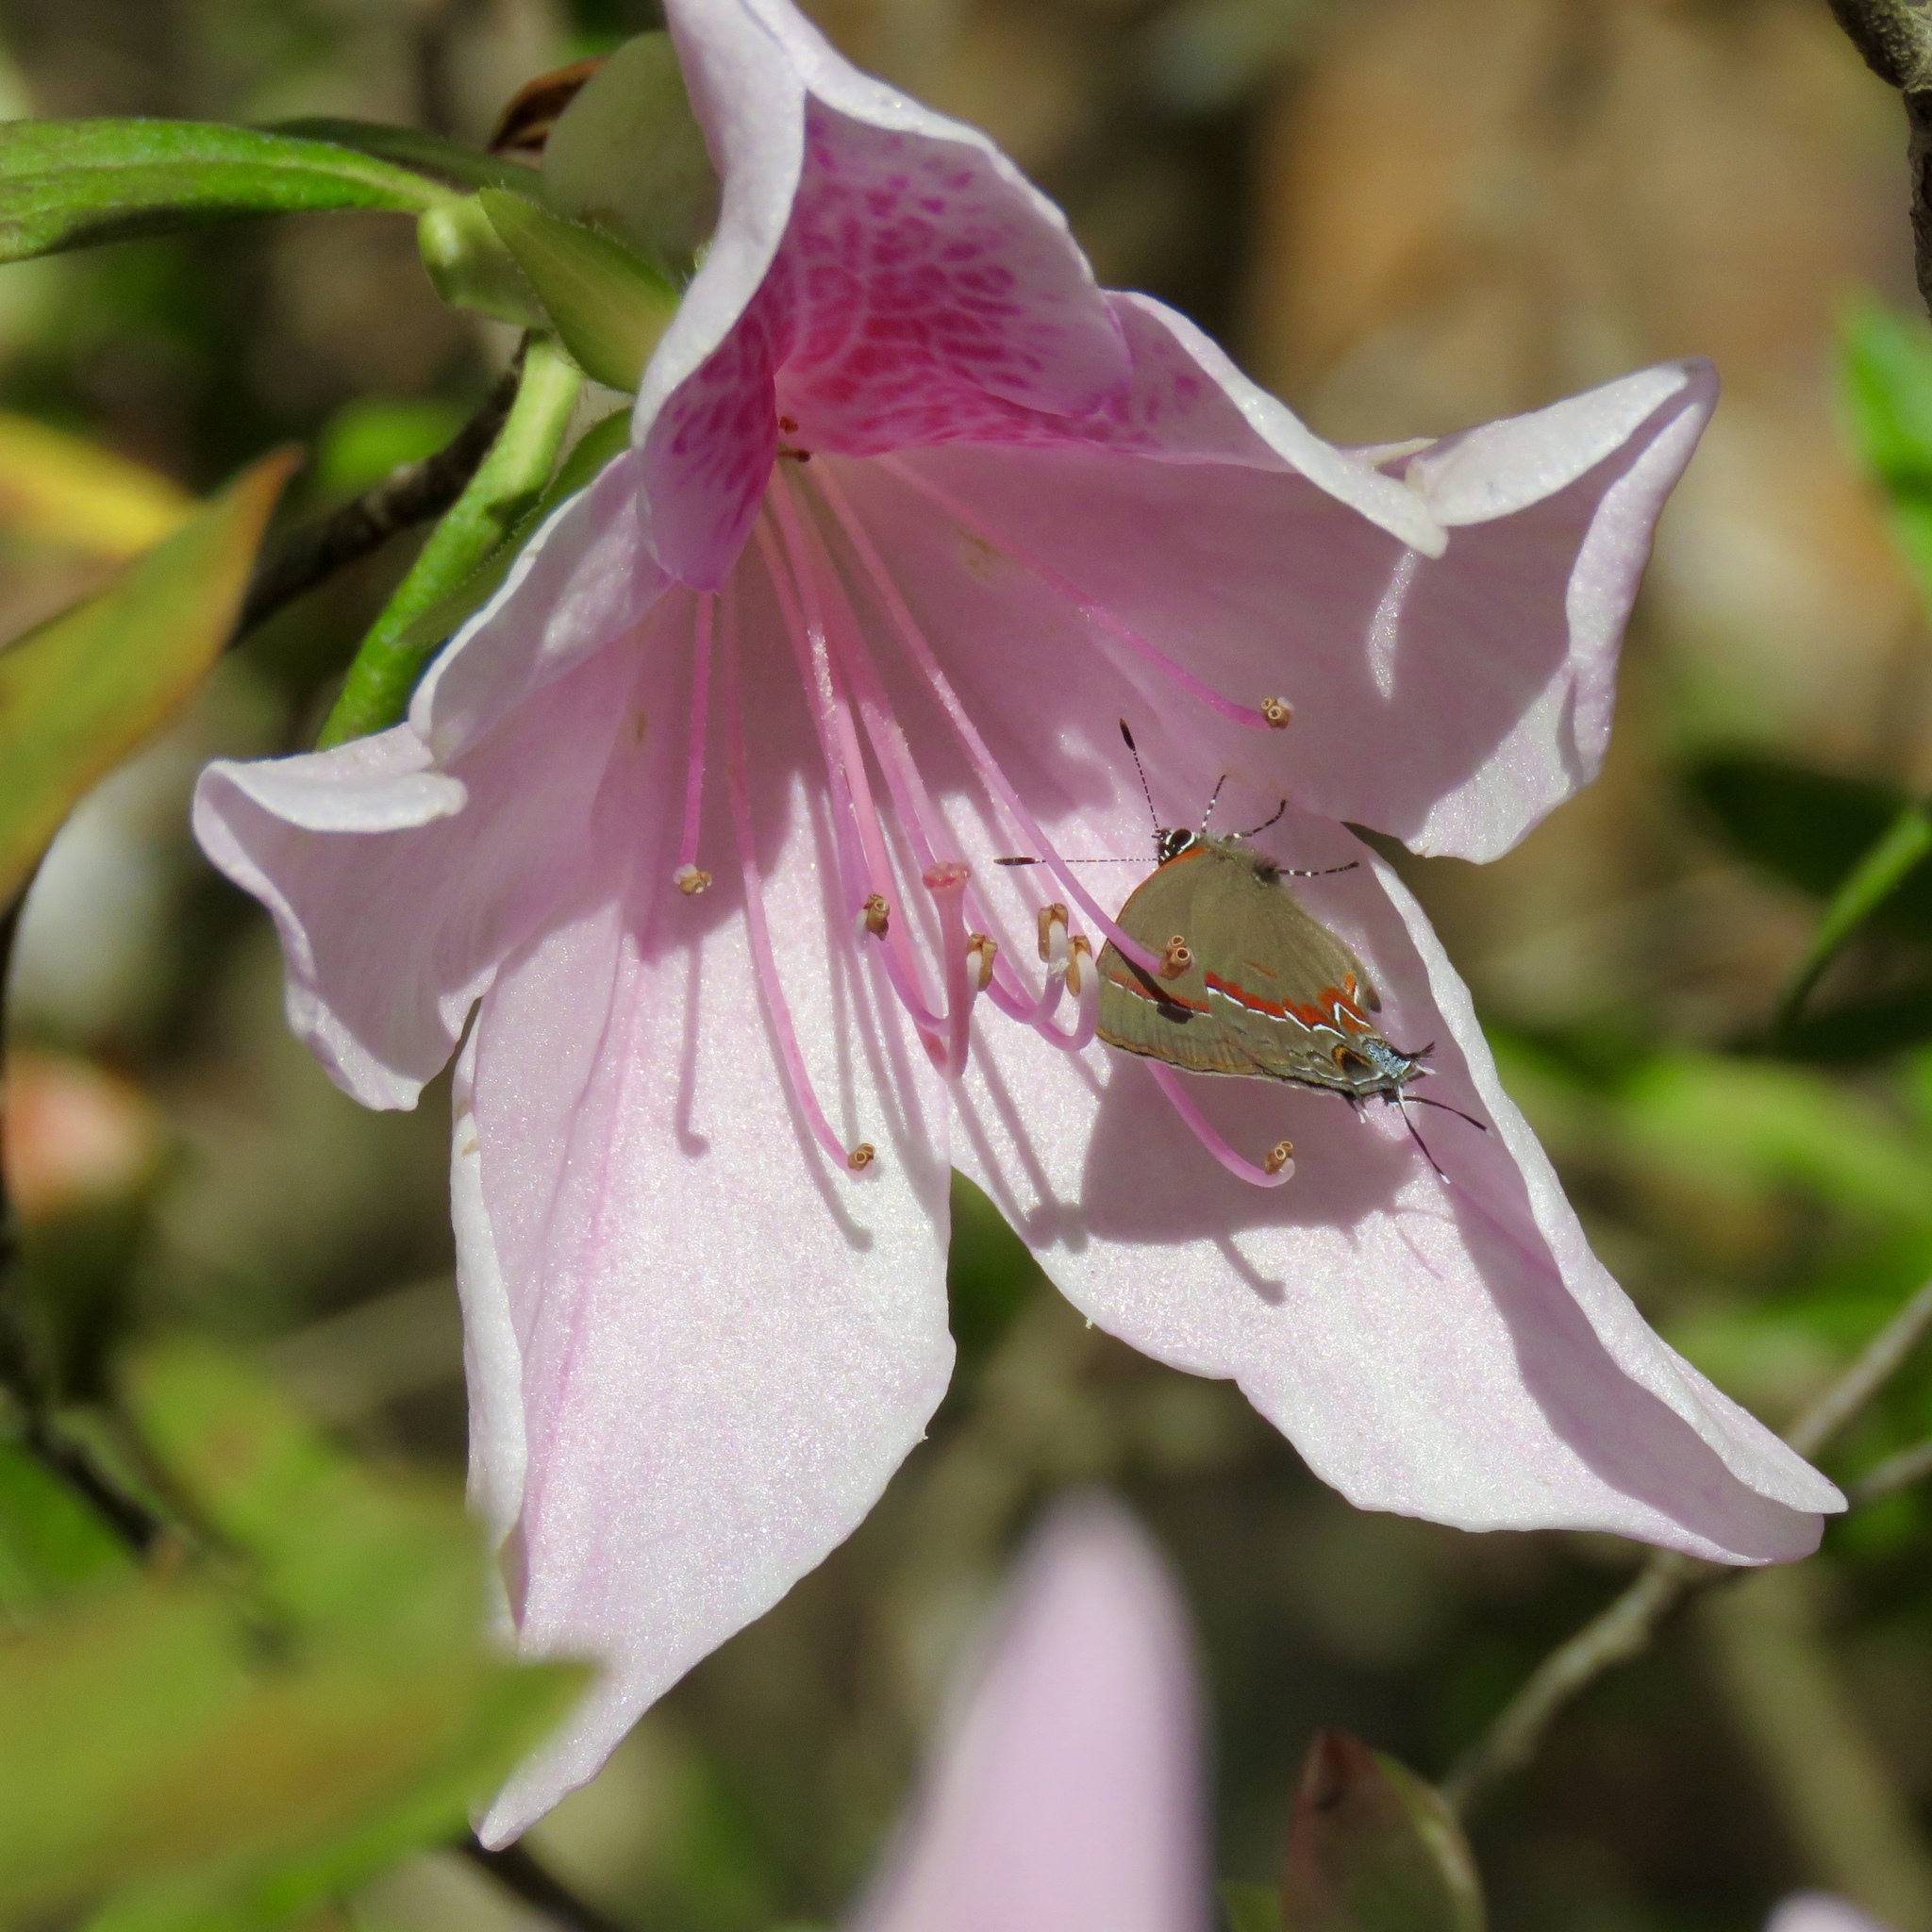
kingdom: Animalia
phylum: Arthropoda
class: Insecta
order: Lepidoptera
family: Lycaenidae
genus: Calycopis
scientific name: Calycopis cecrops
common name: Red-banded hairstreak
